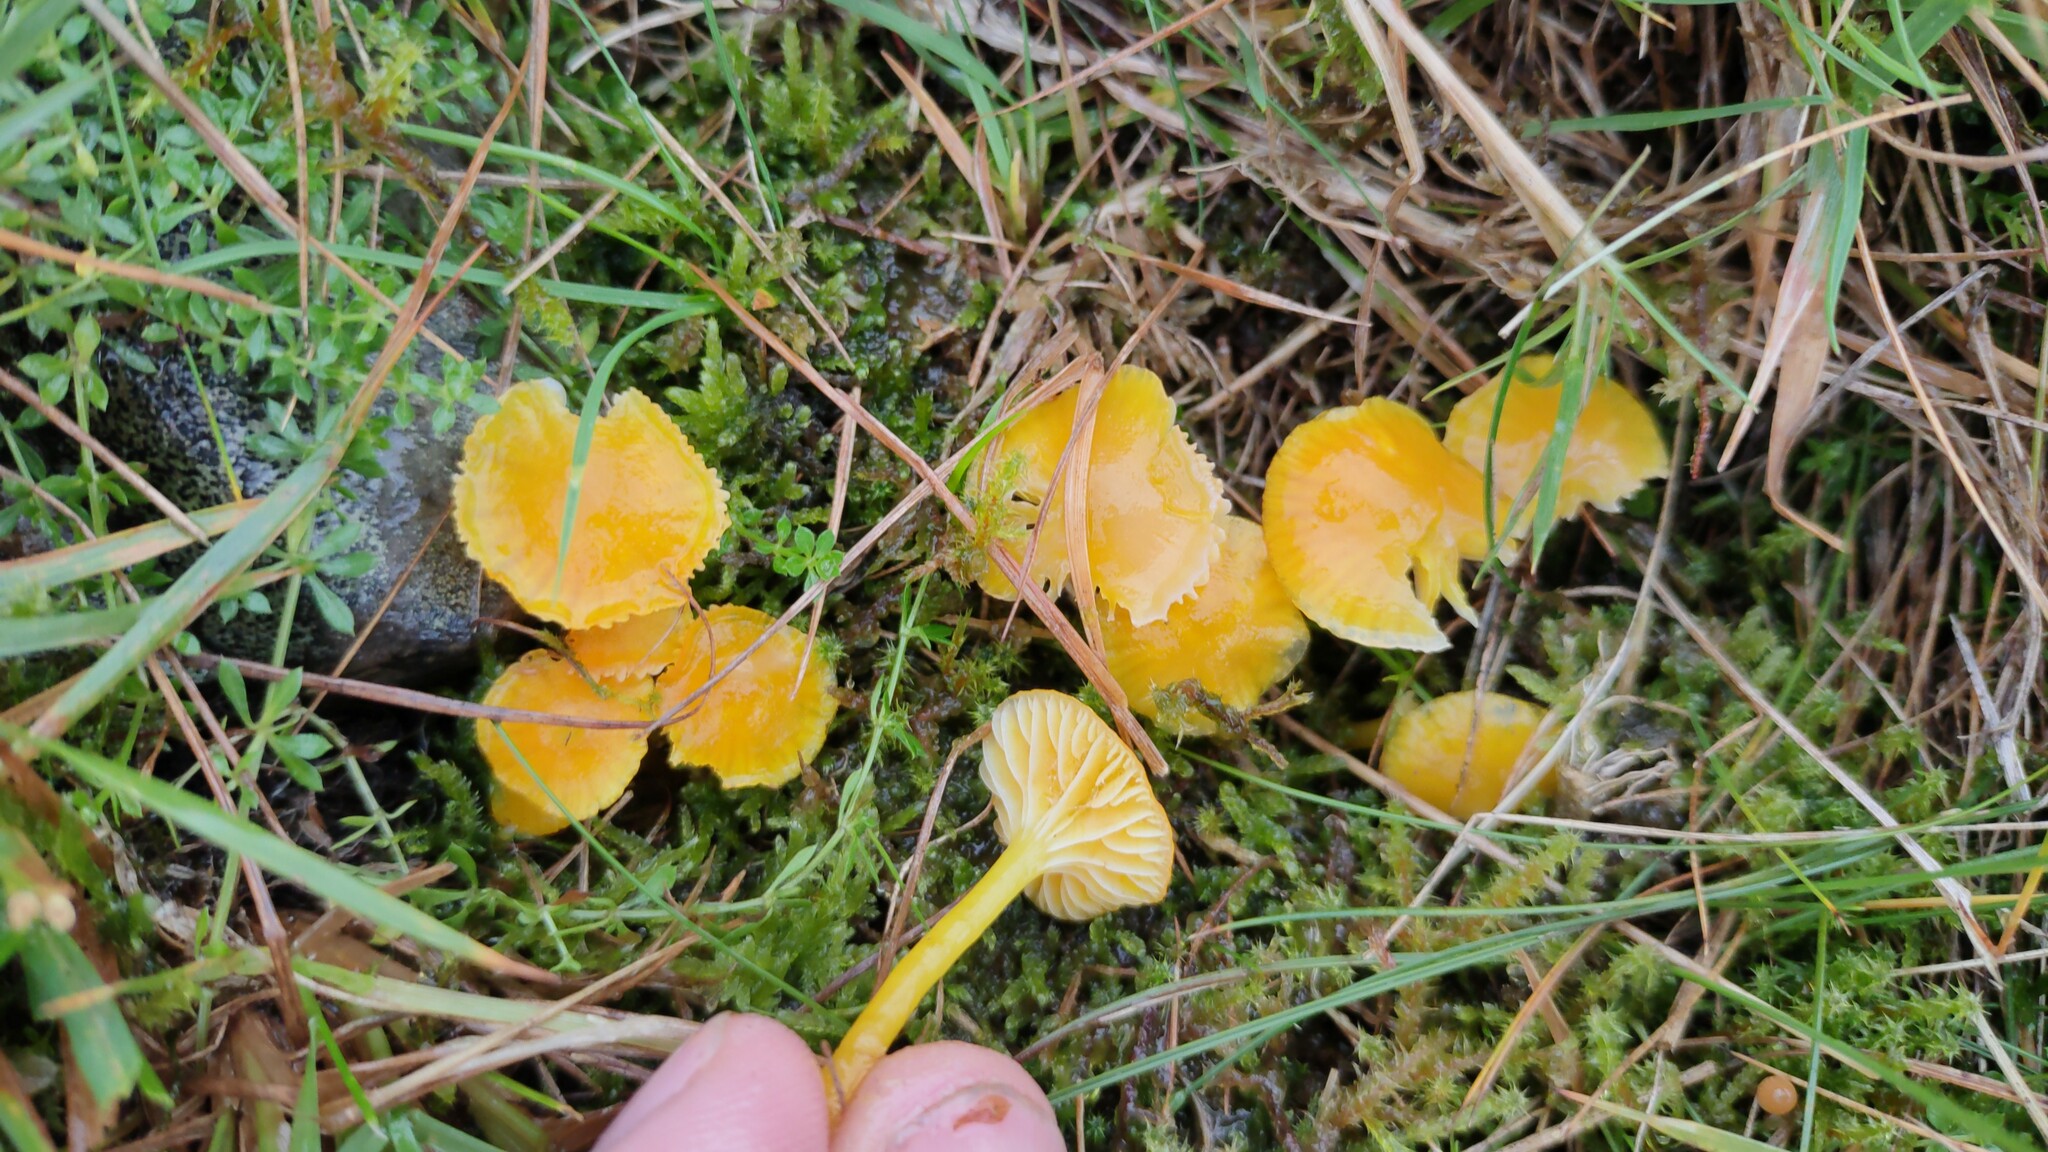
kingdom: Fungi
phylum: Basidiomycota
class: Agaricomycetes
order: Agaricales
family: Hygrophoraceae
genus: Hygrocybe
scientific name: Hygrocybe ceracea
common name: Butter waxcap
